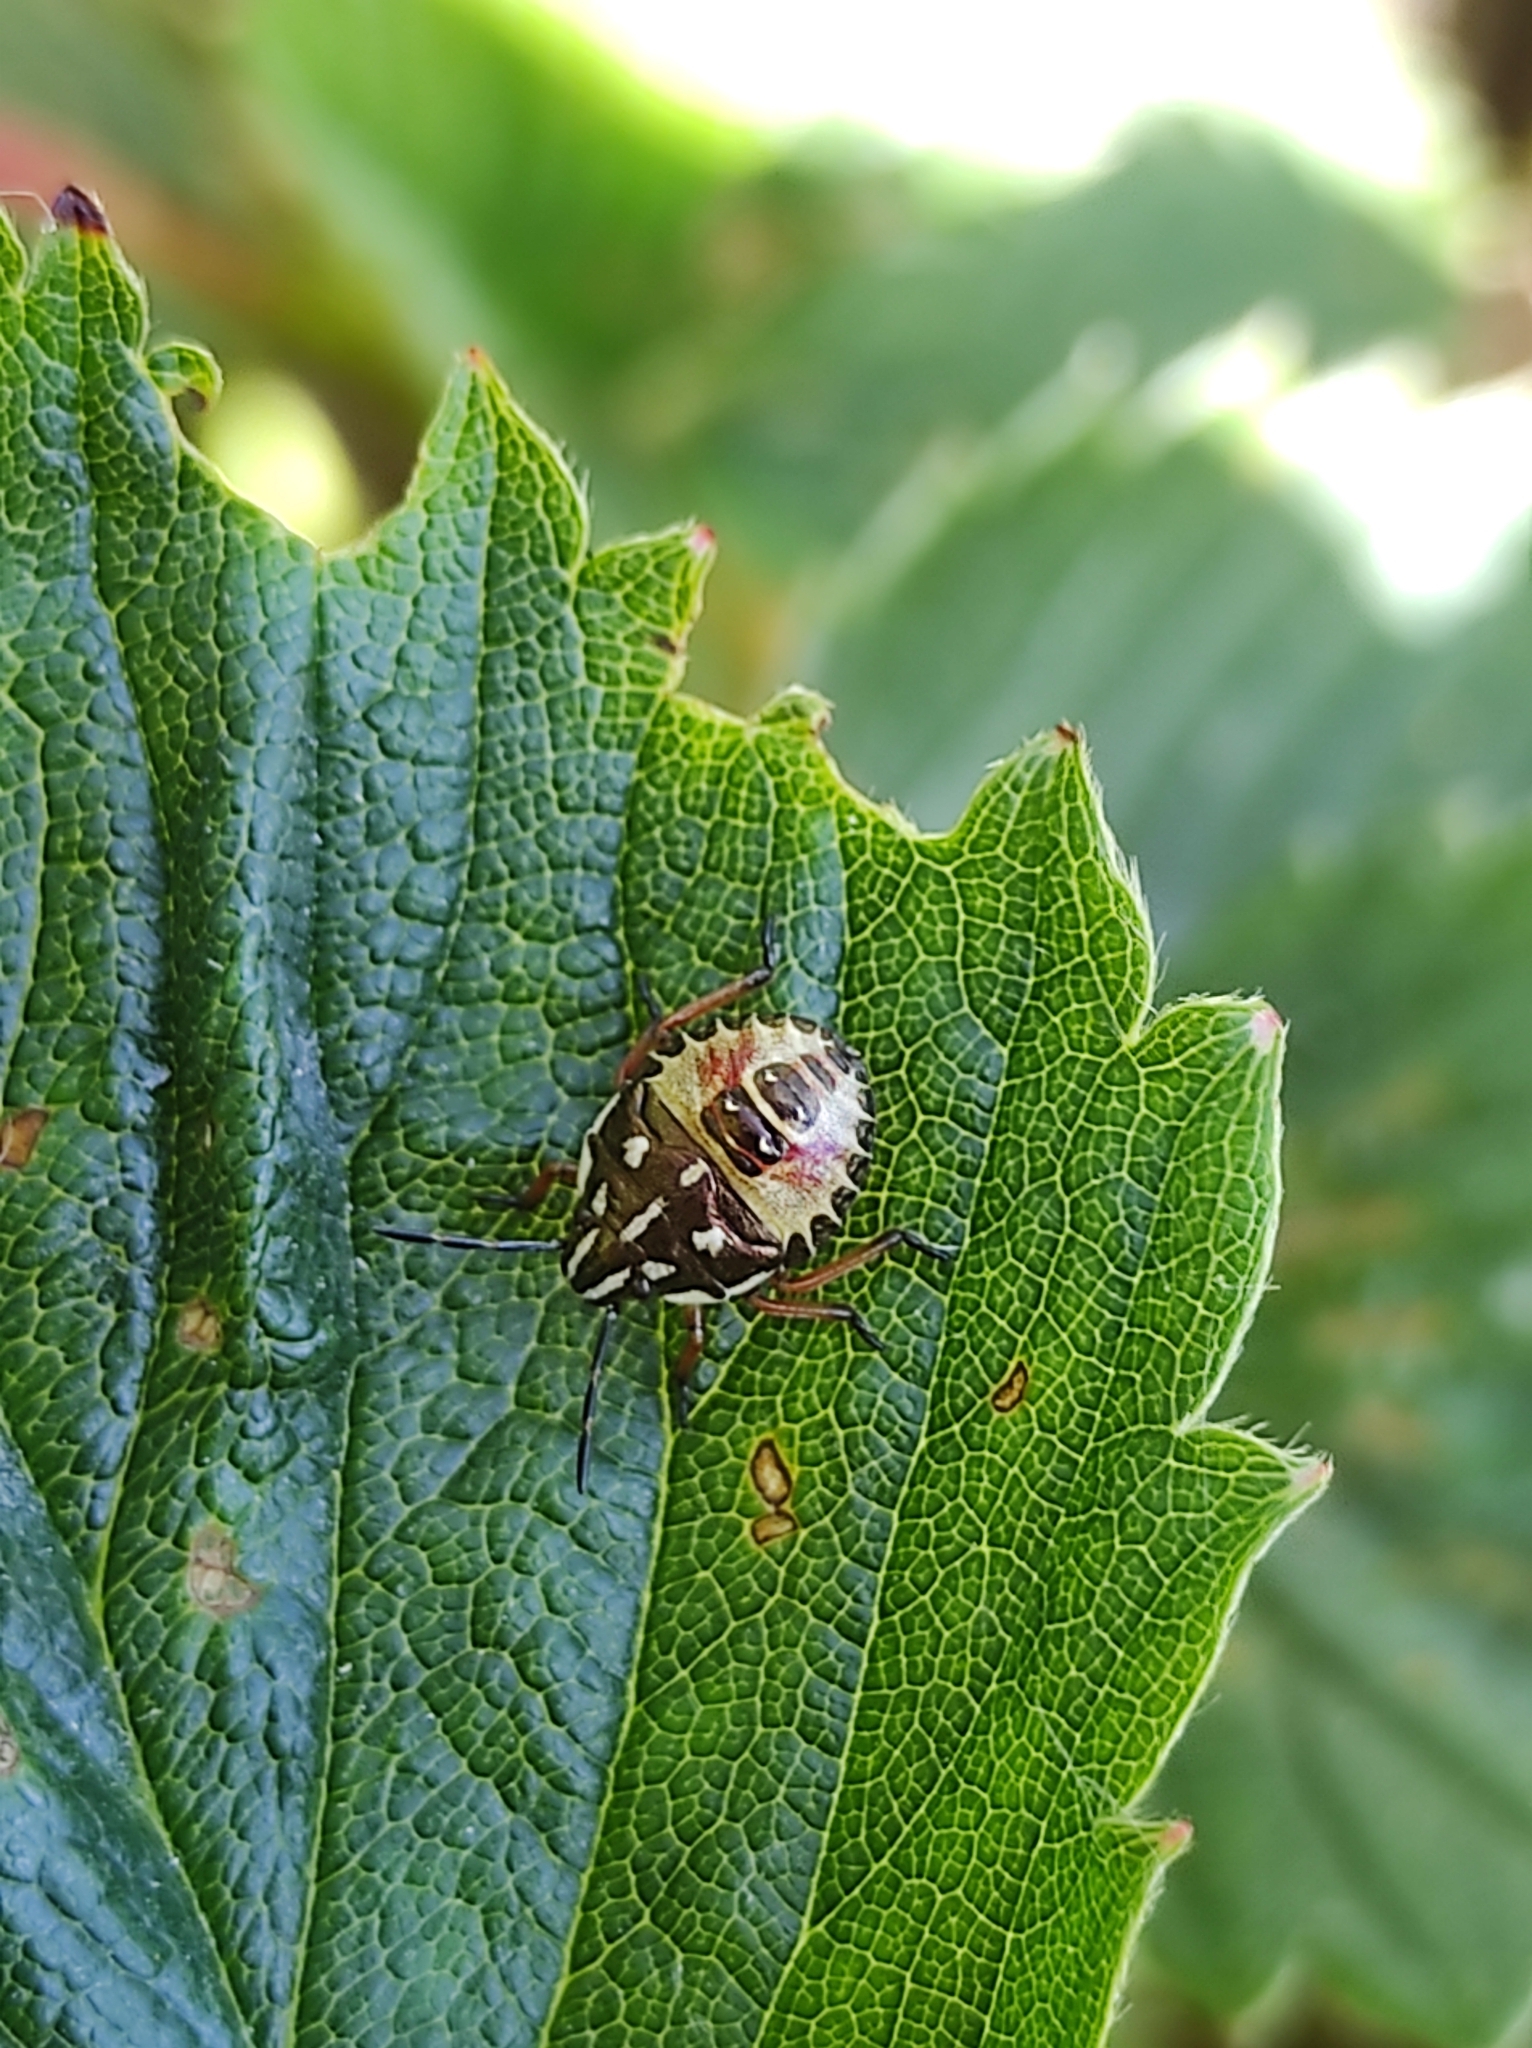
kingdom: Animalia
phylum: Arthropoda
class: Insecta
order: Hemiptera
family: Pentatomidae
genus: Carpocoris
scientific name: Carpocoris purpureipennis
